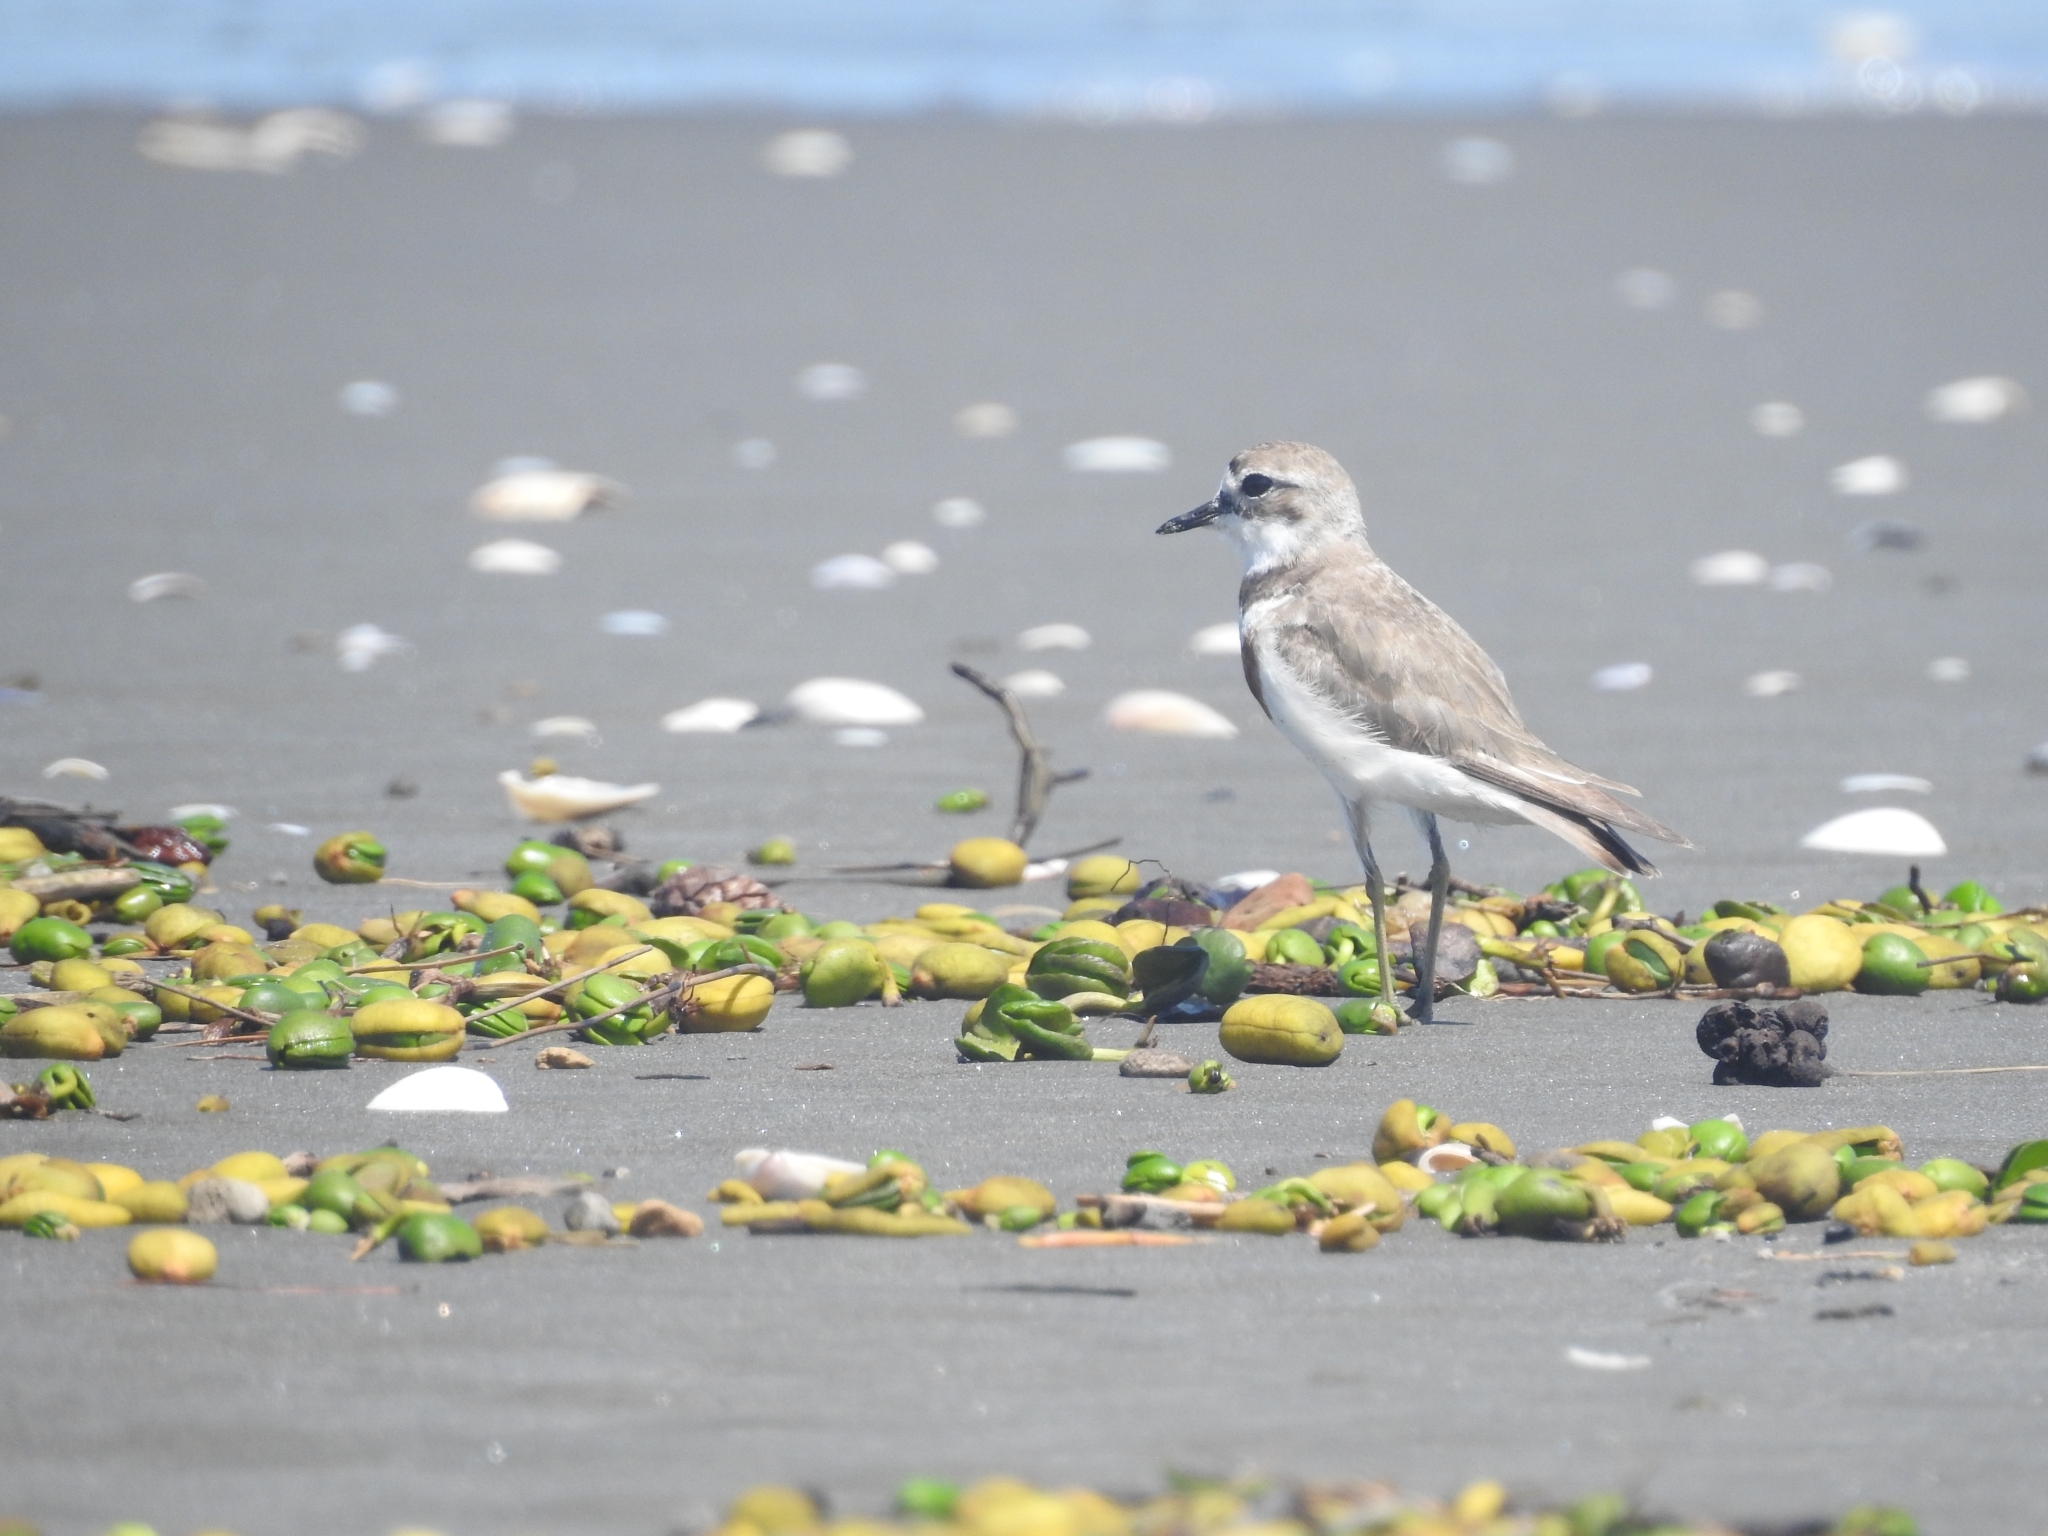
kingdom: Animalia
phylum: Chordata
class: Aves
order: Charadriiformes
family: Charadriidae
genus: Anarhynchus
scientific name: Anarhynchus
